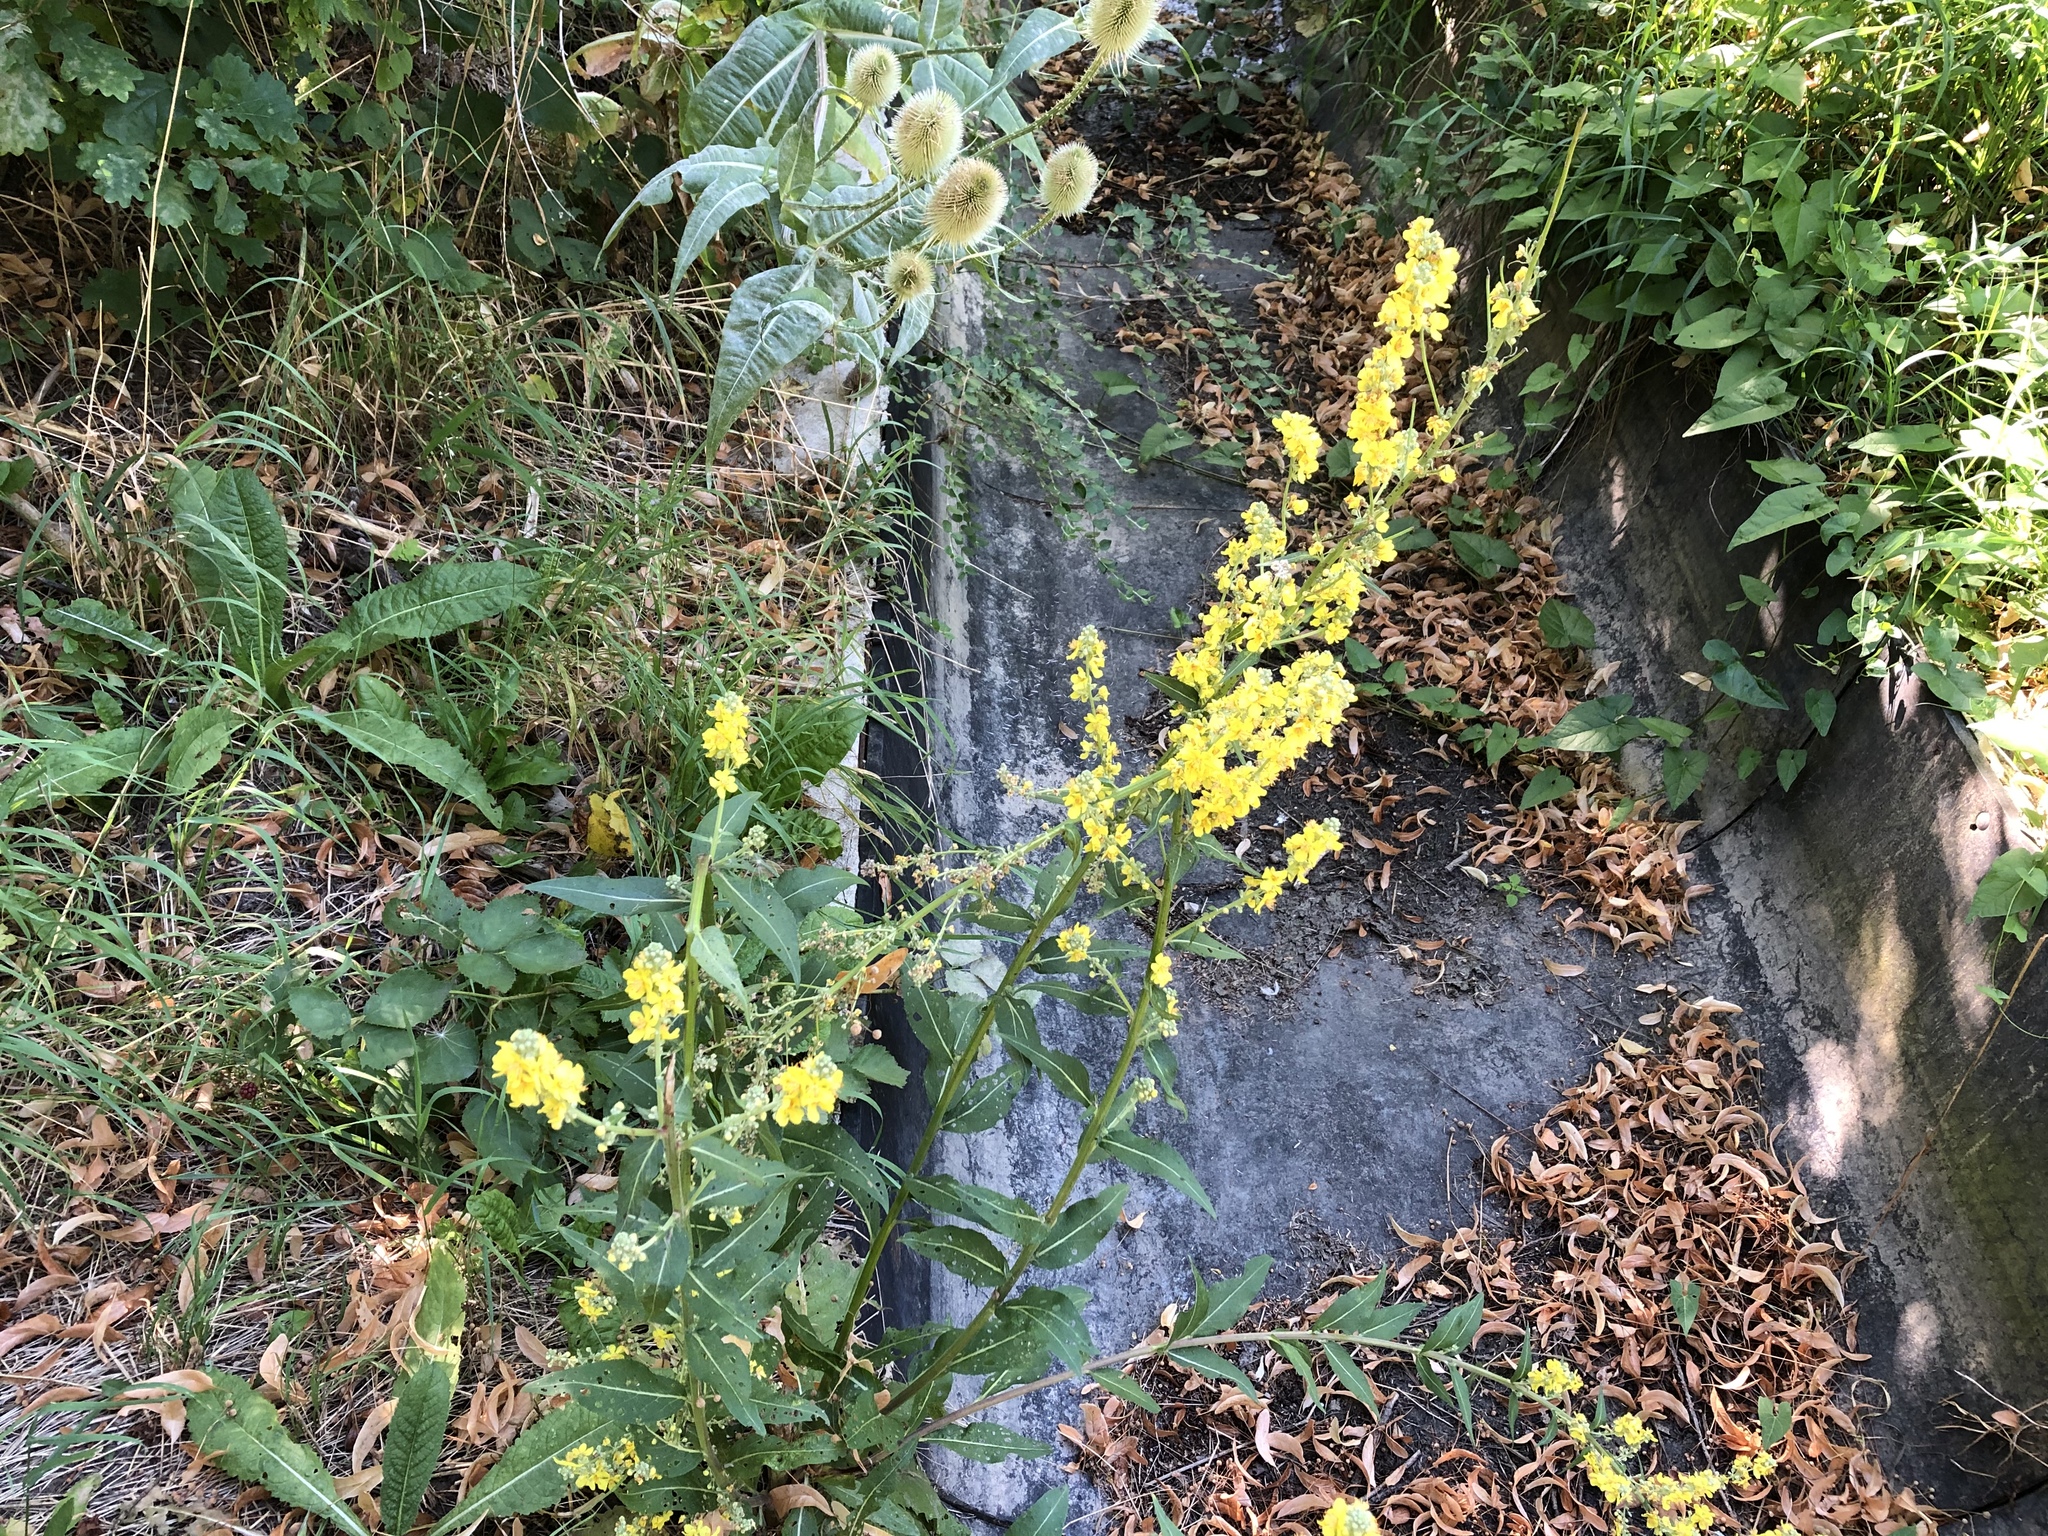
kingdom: Plantae
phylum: Tracheophyta
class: Magnoliopsida
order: Lamiales
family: Scrophulariaceae
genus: Verbascum
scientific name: Verbascum lychnitis
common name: White mullein
